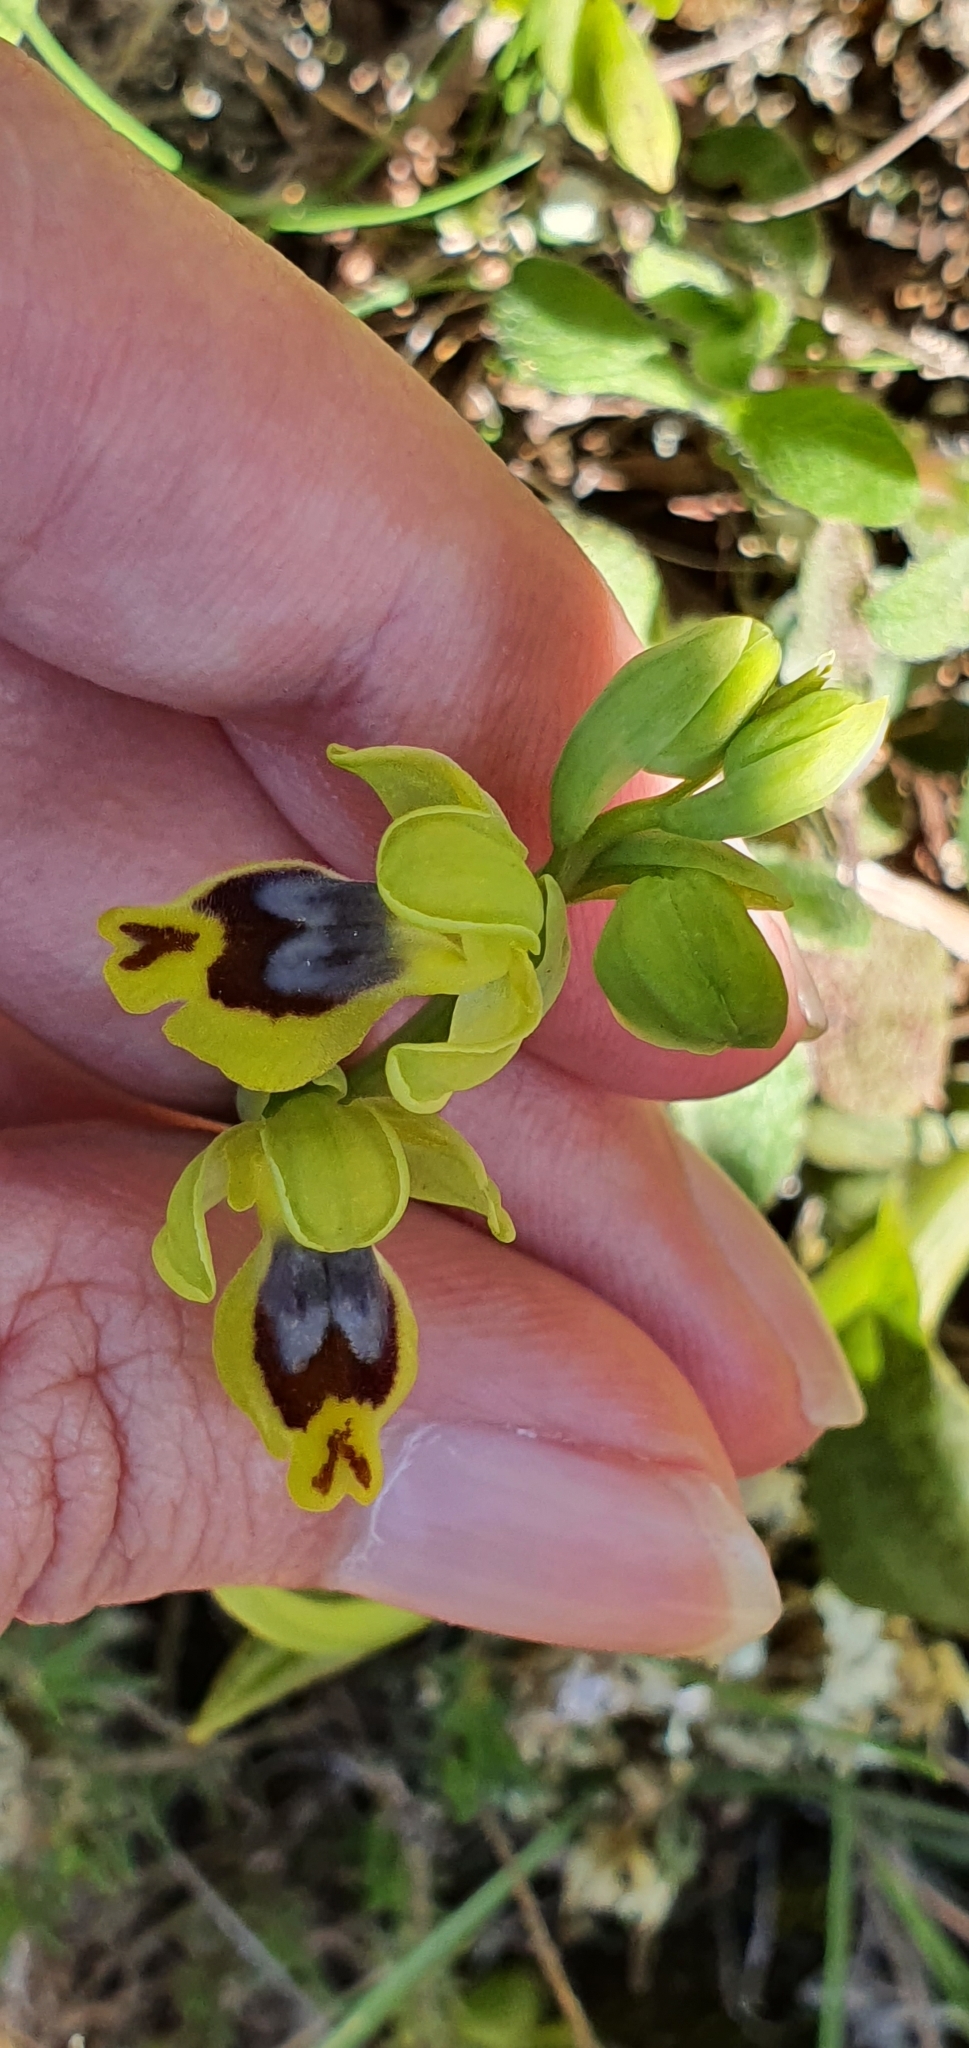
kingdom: Plantae
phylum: Tracheophyta
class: Liliopsida
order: Asparagales
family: Orchidaceae
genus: Ophrys
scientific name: Ophrys battandieri
